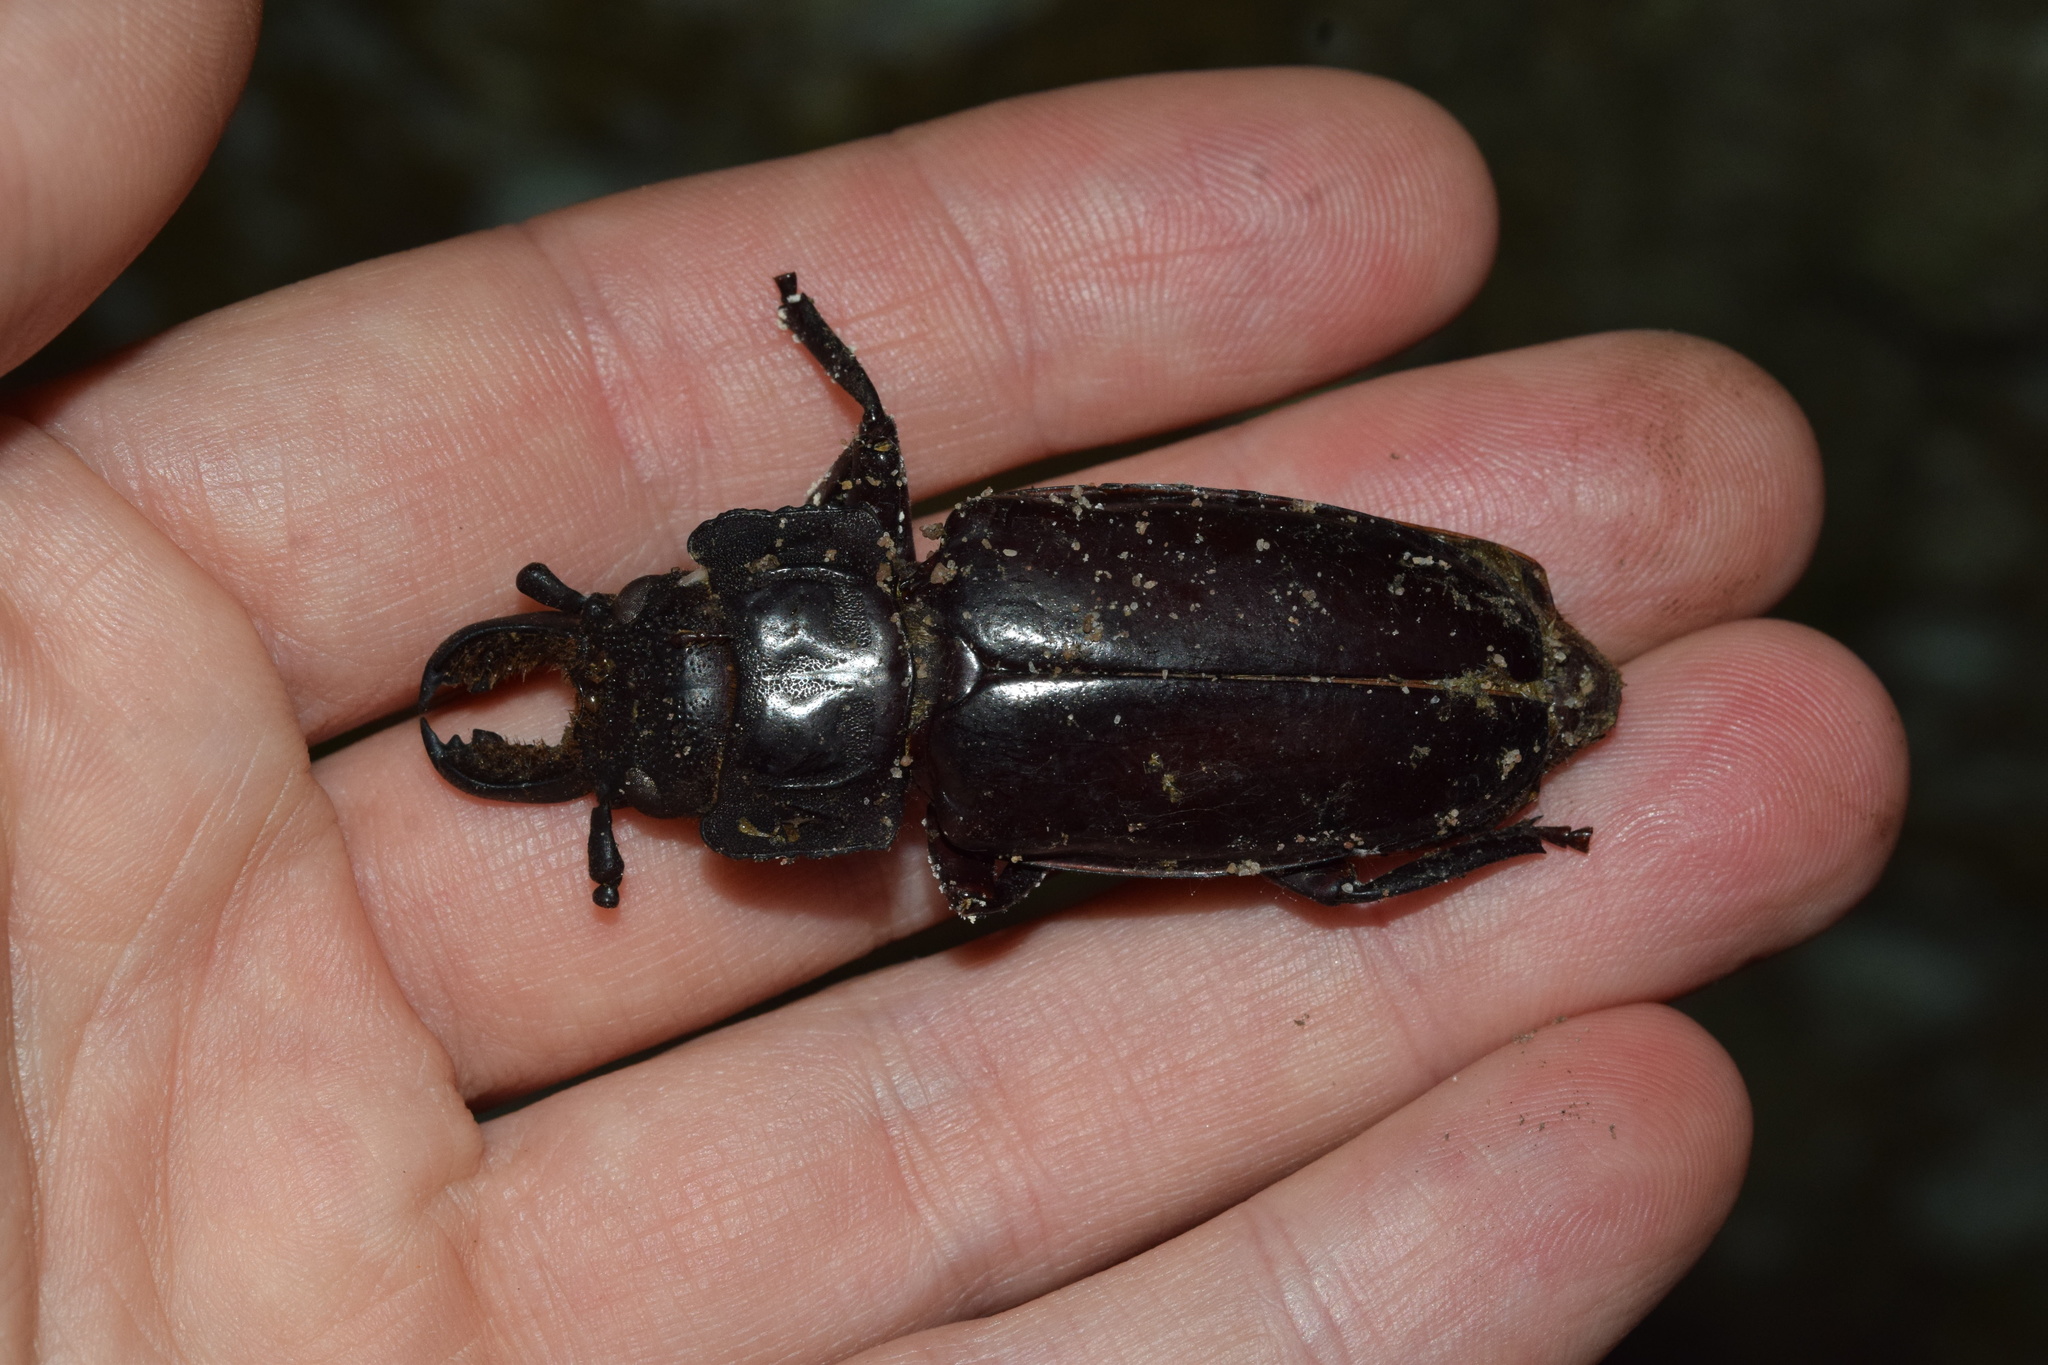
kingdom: Animalia
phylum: Arthropoda
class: Insecta
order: Coleoptera
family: Cerambycidae
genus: Mallodon
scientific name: Mallodon downesii
